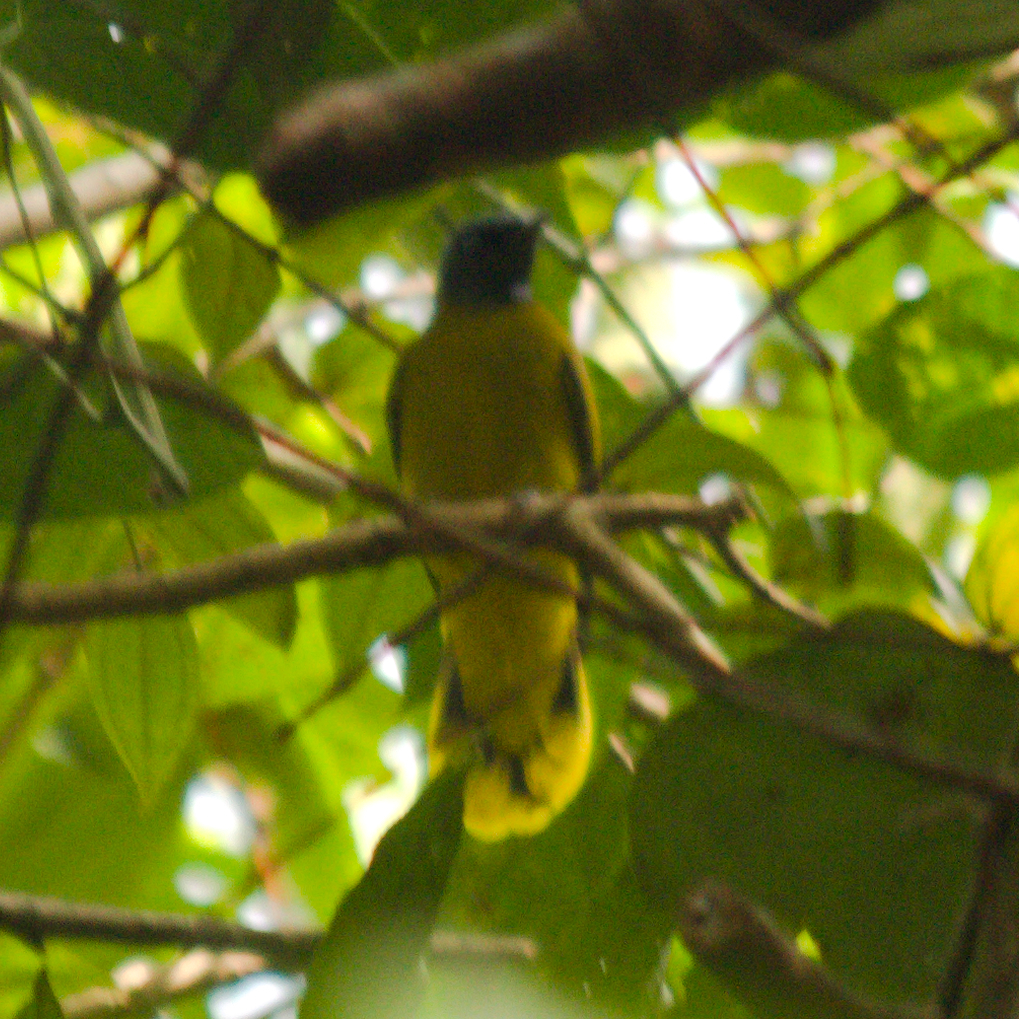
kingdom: Animalia
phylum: Chordata
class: Aves
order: Passeriformes
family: Pycnonotidae
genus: Microtarsus
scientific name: Microtarsus
